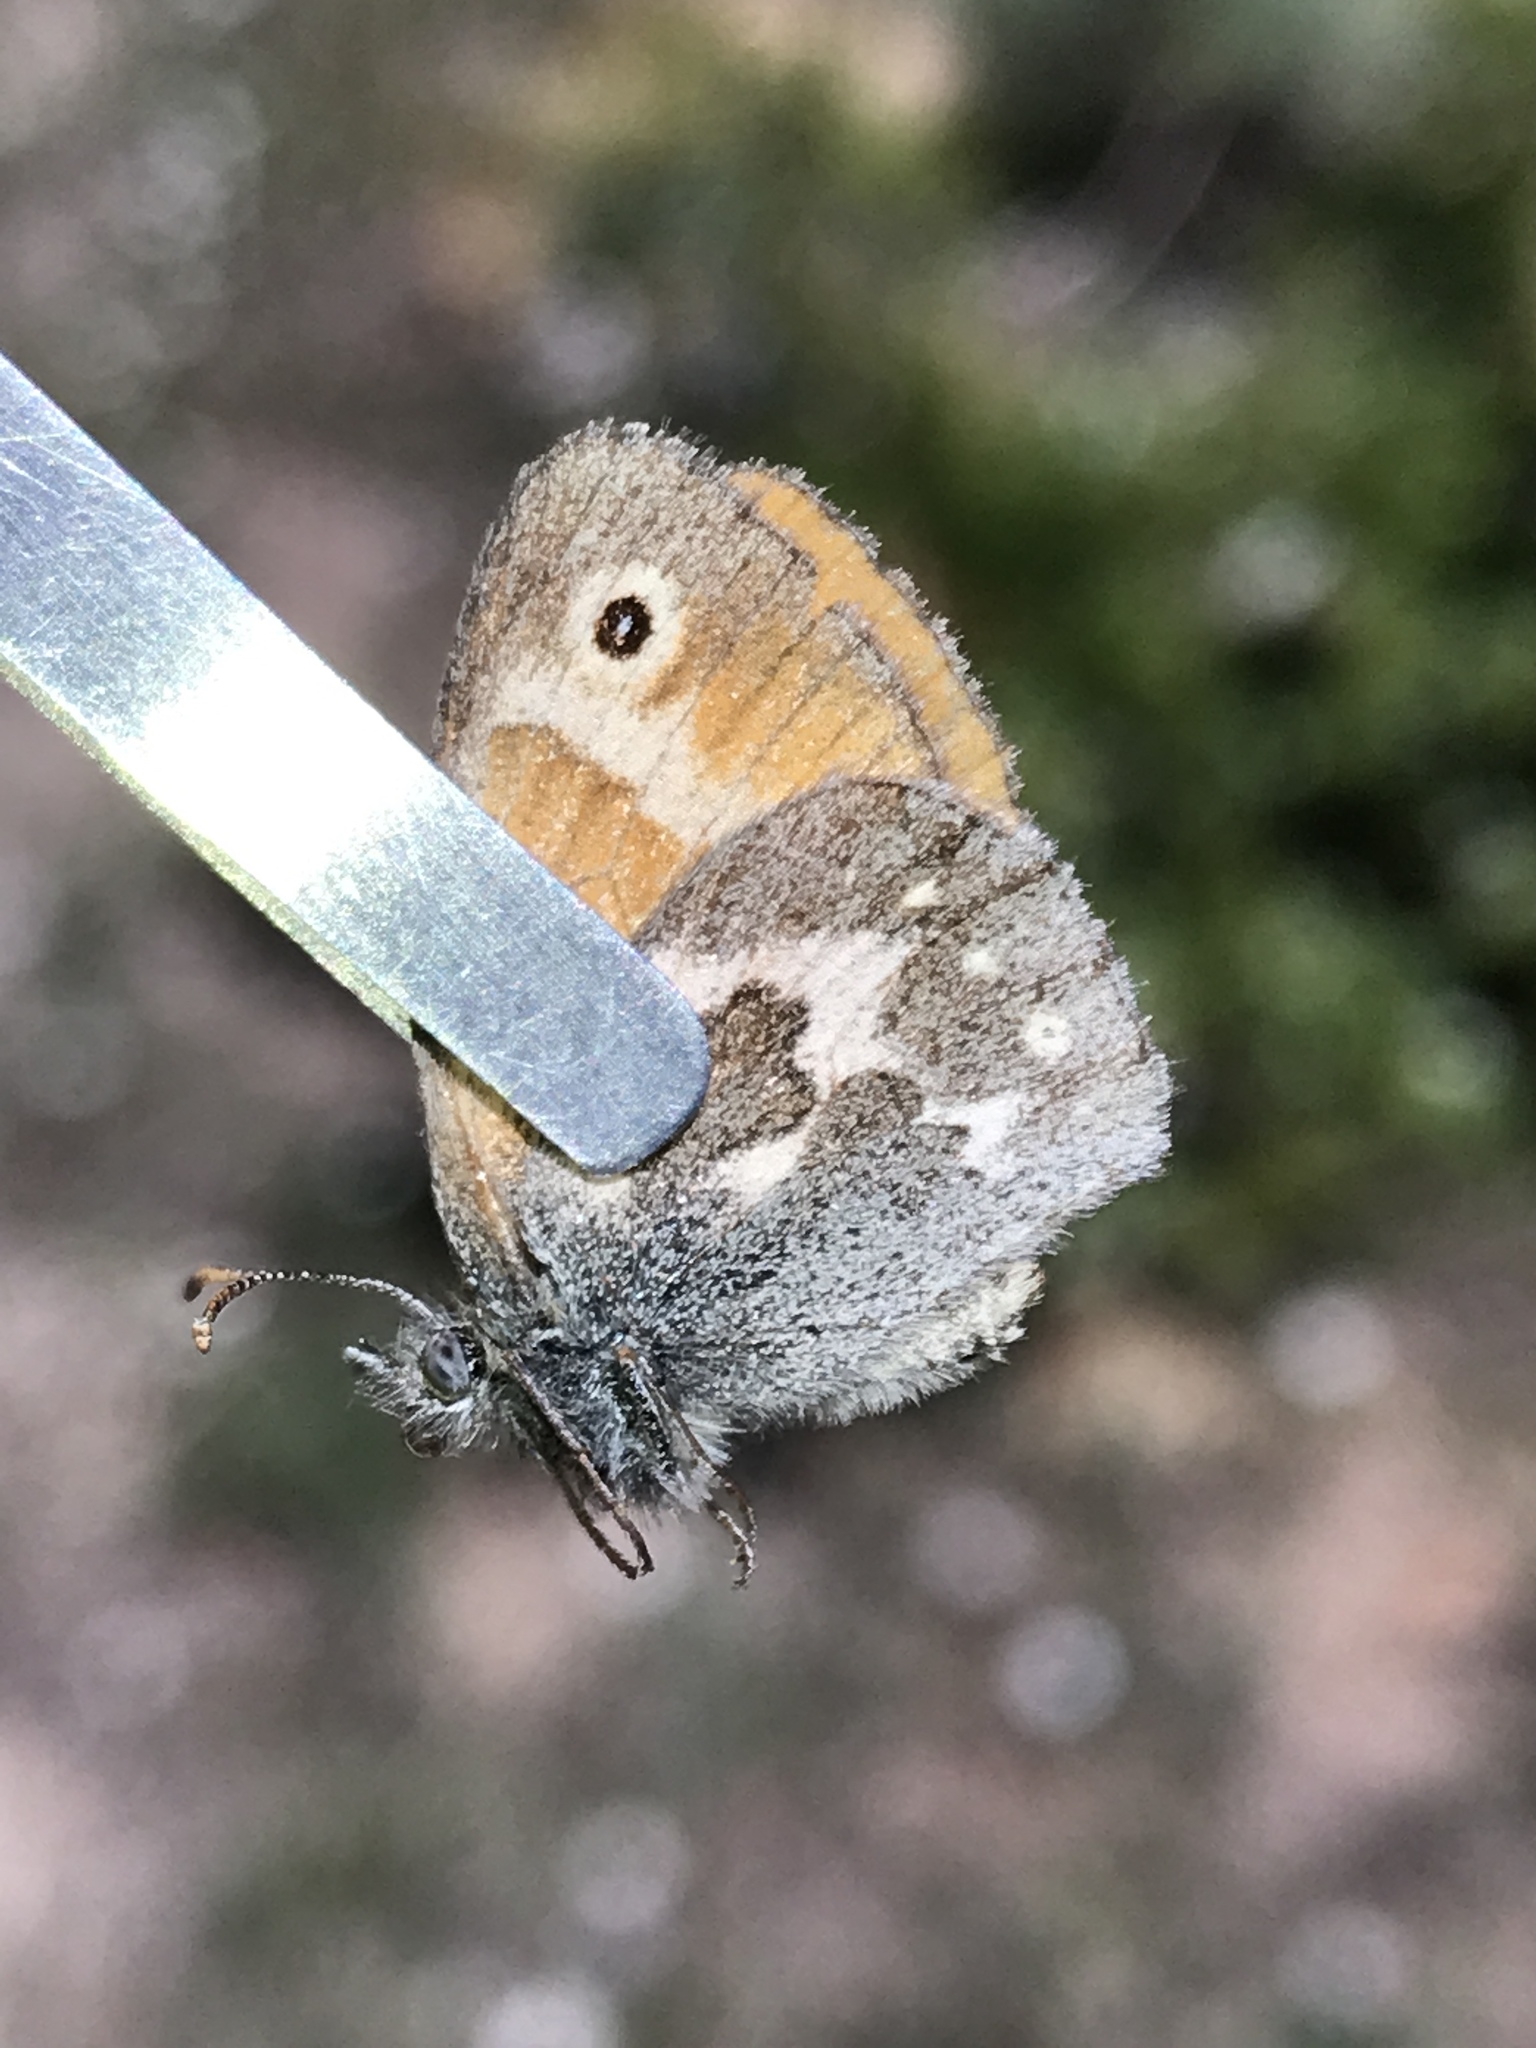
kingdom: Animalia
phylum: Arthropoda
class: Insecta
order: Lepidoptera
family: Nymphalidae
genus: Coenonympha
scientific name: Coenonympha california
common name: Common ringlet
